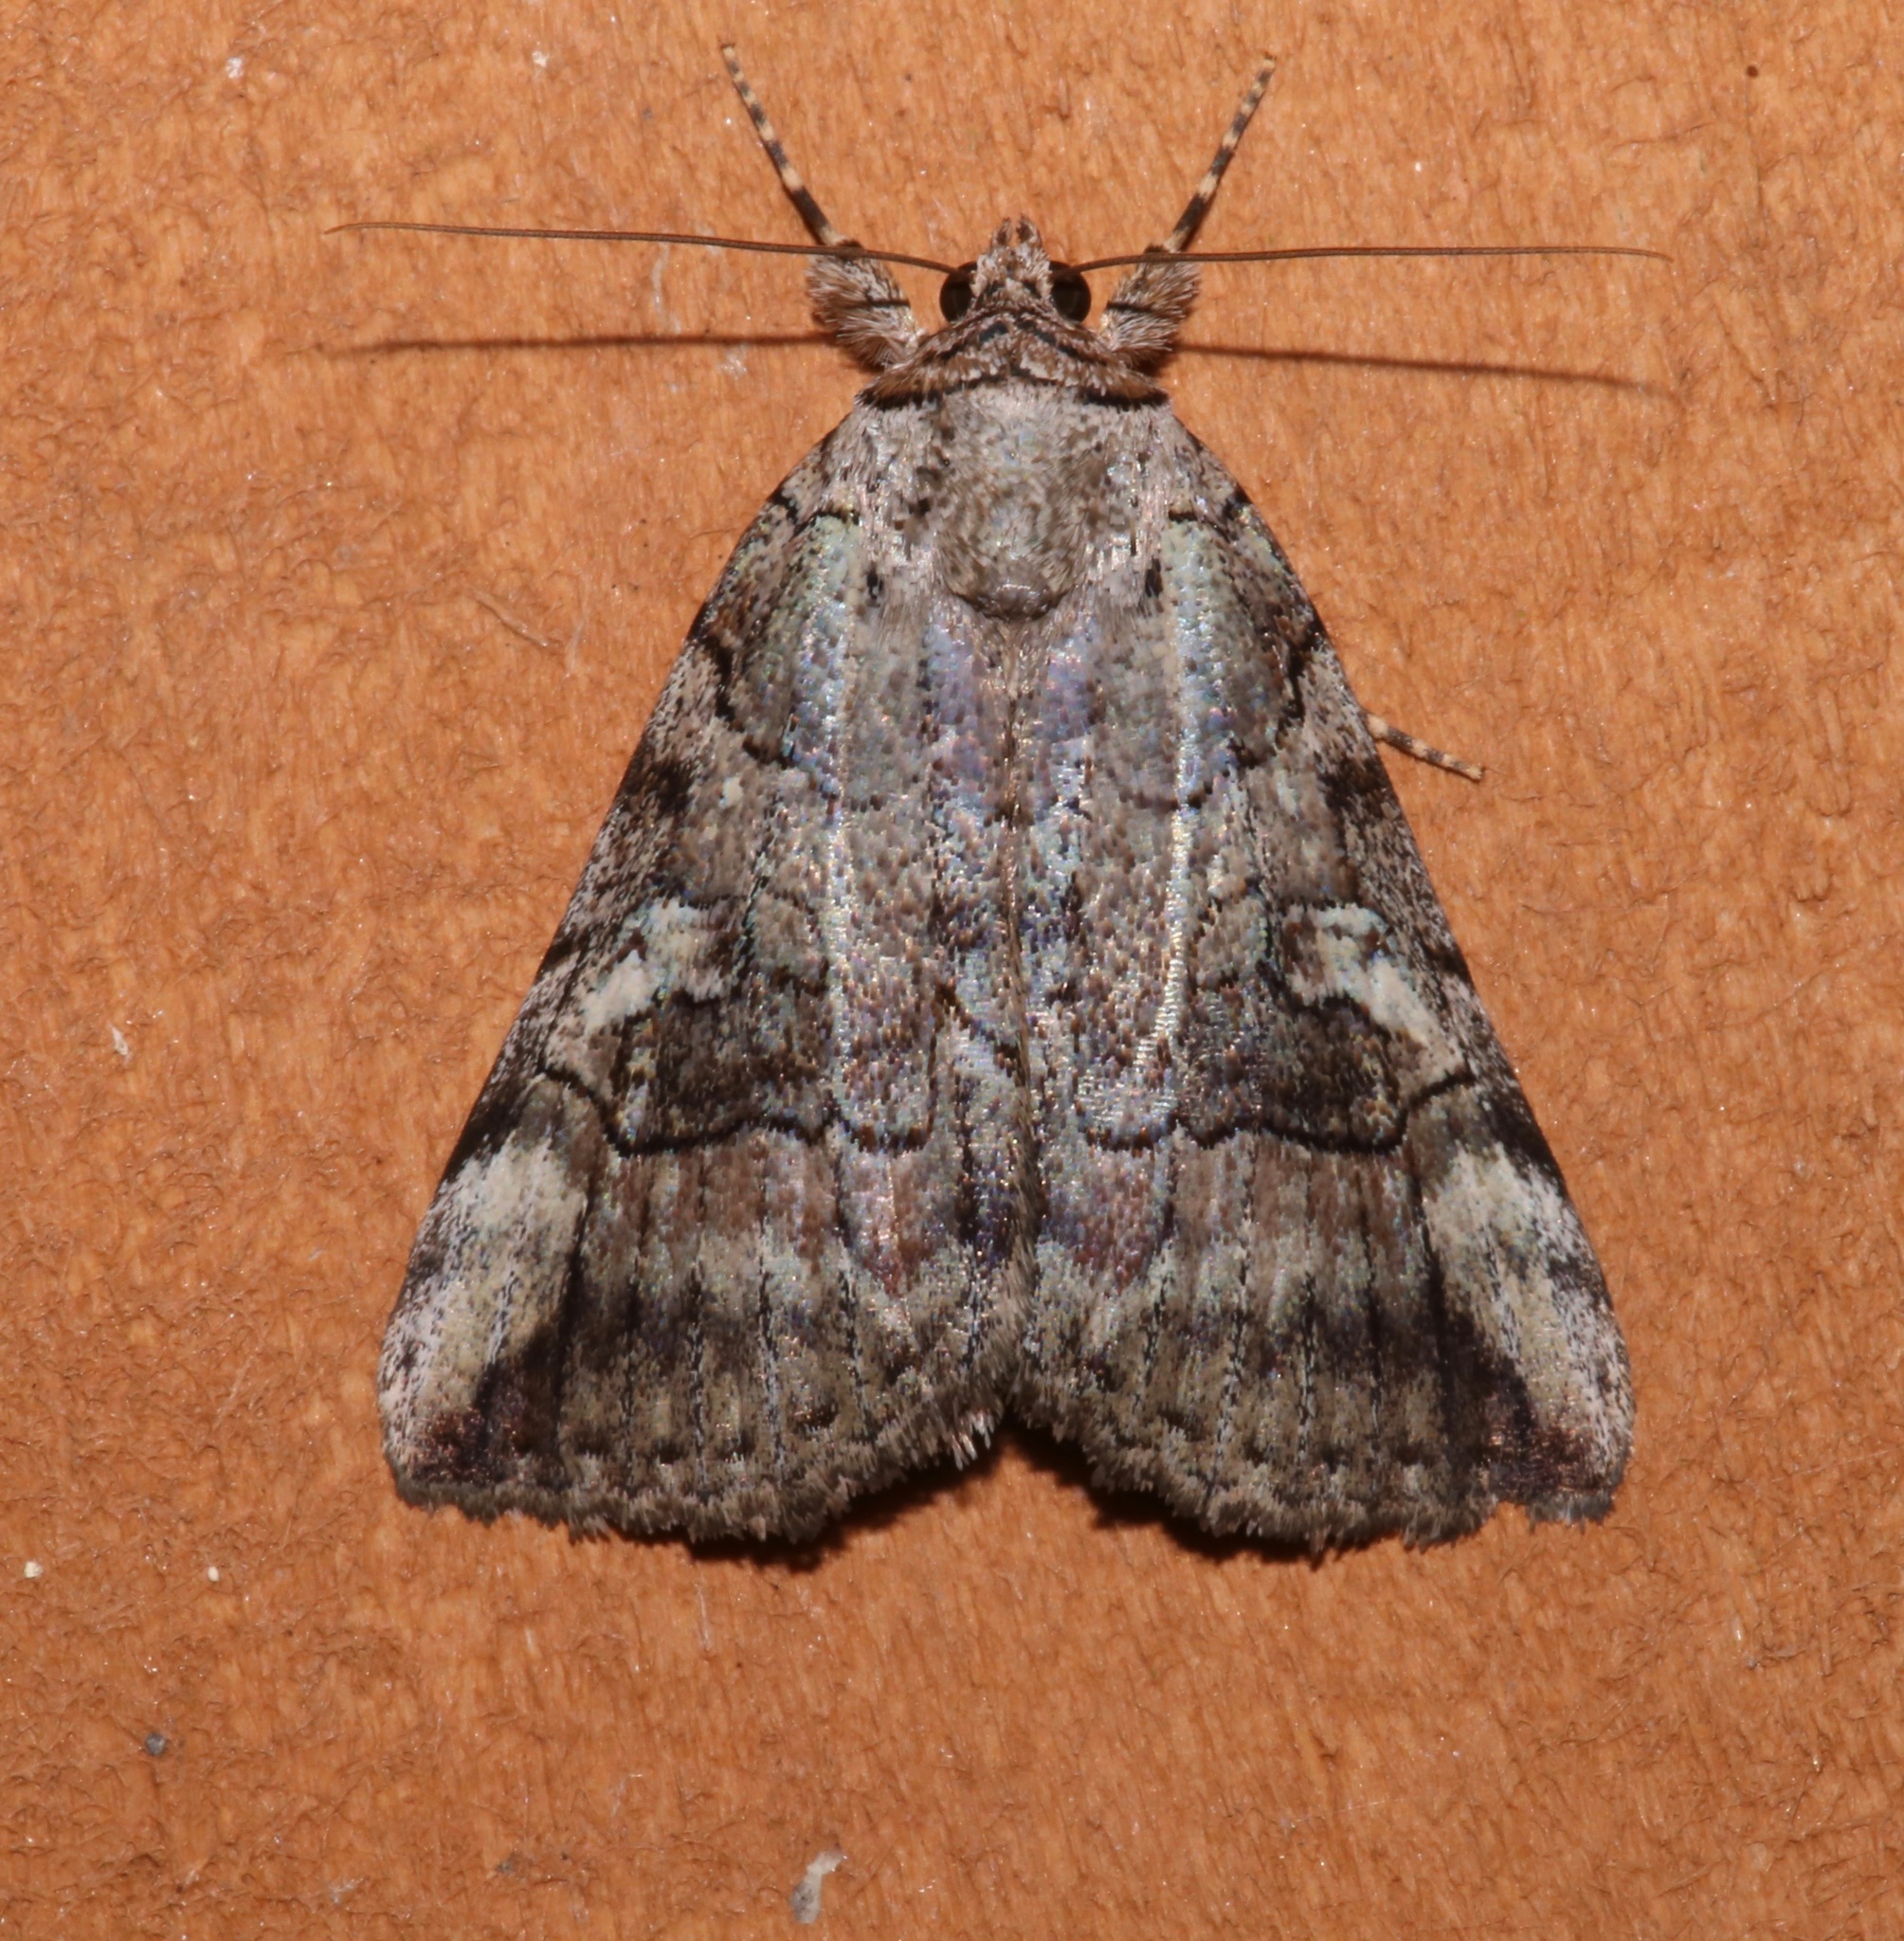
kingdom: Animalia
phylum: Arthropoda
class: Insecta
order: Lepidoptera
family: Erebidae
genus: Catocala
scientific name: Catocala similis
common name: Similar underwing
